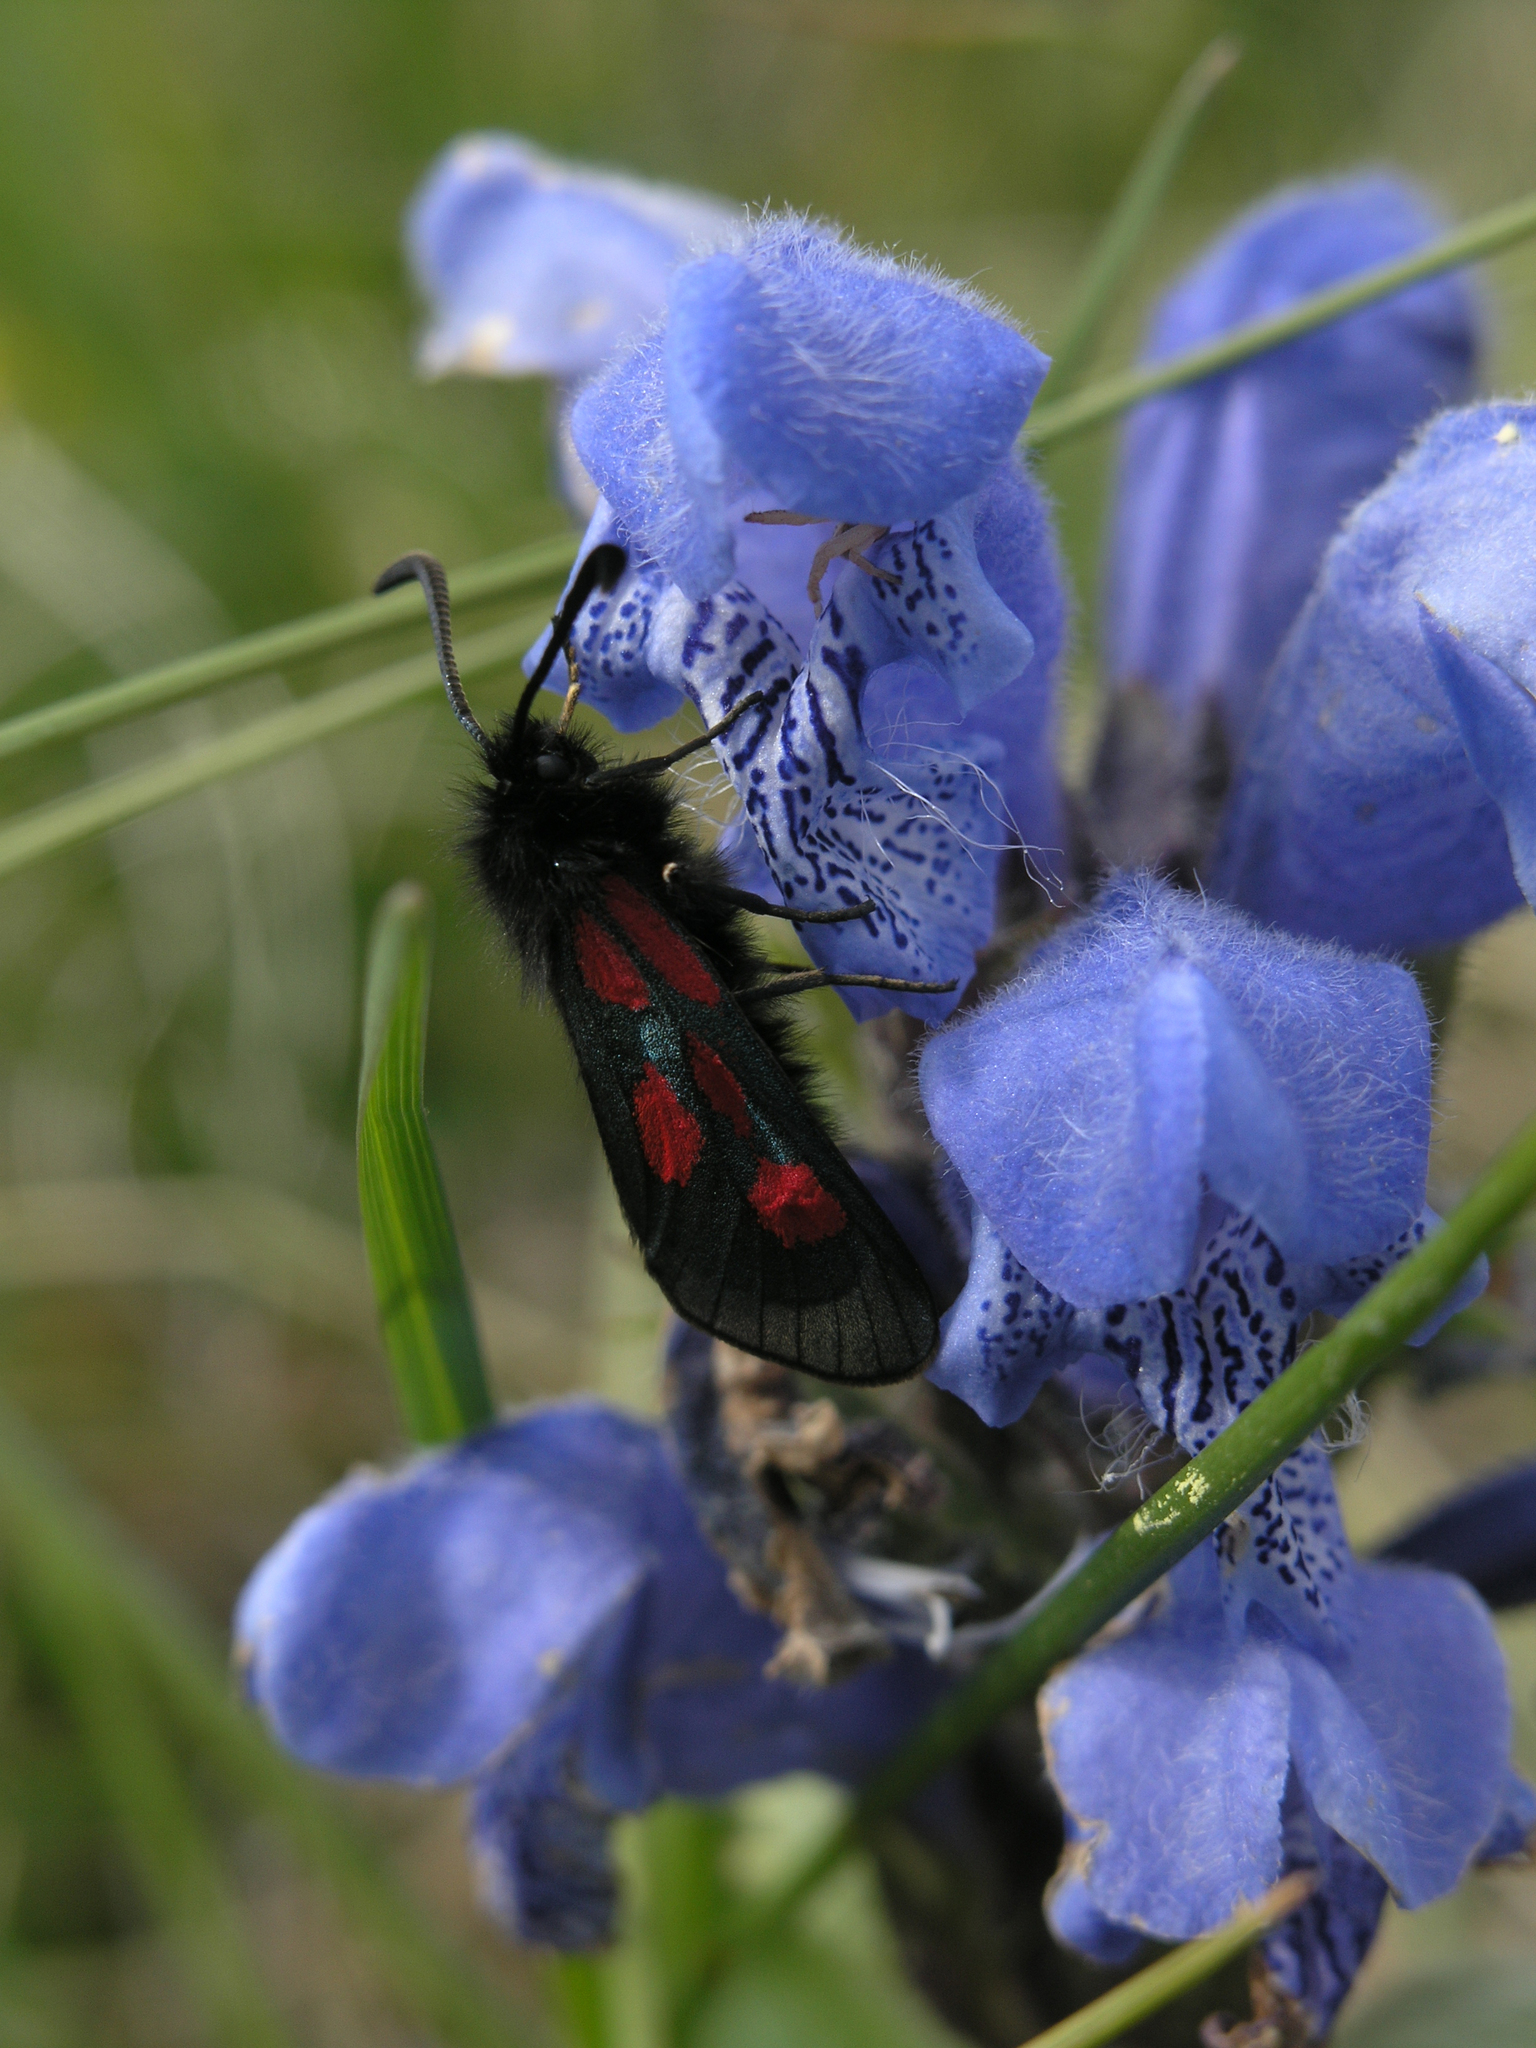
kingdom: Plantae
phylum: Tracheophyta
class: Magnoliopsida
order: Lamiales
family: Lamiaceae
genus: Dracocephalum
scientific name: Dracocephalum grandiflorum
